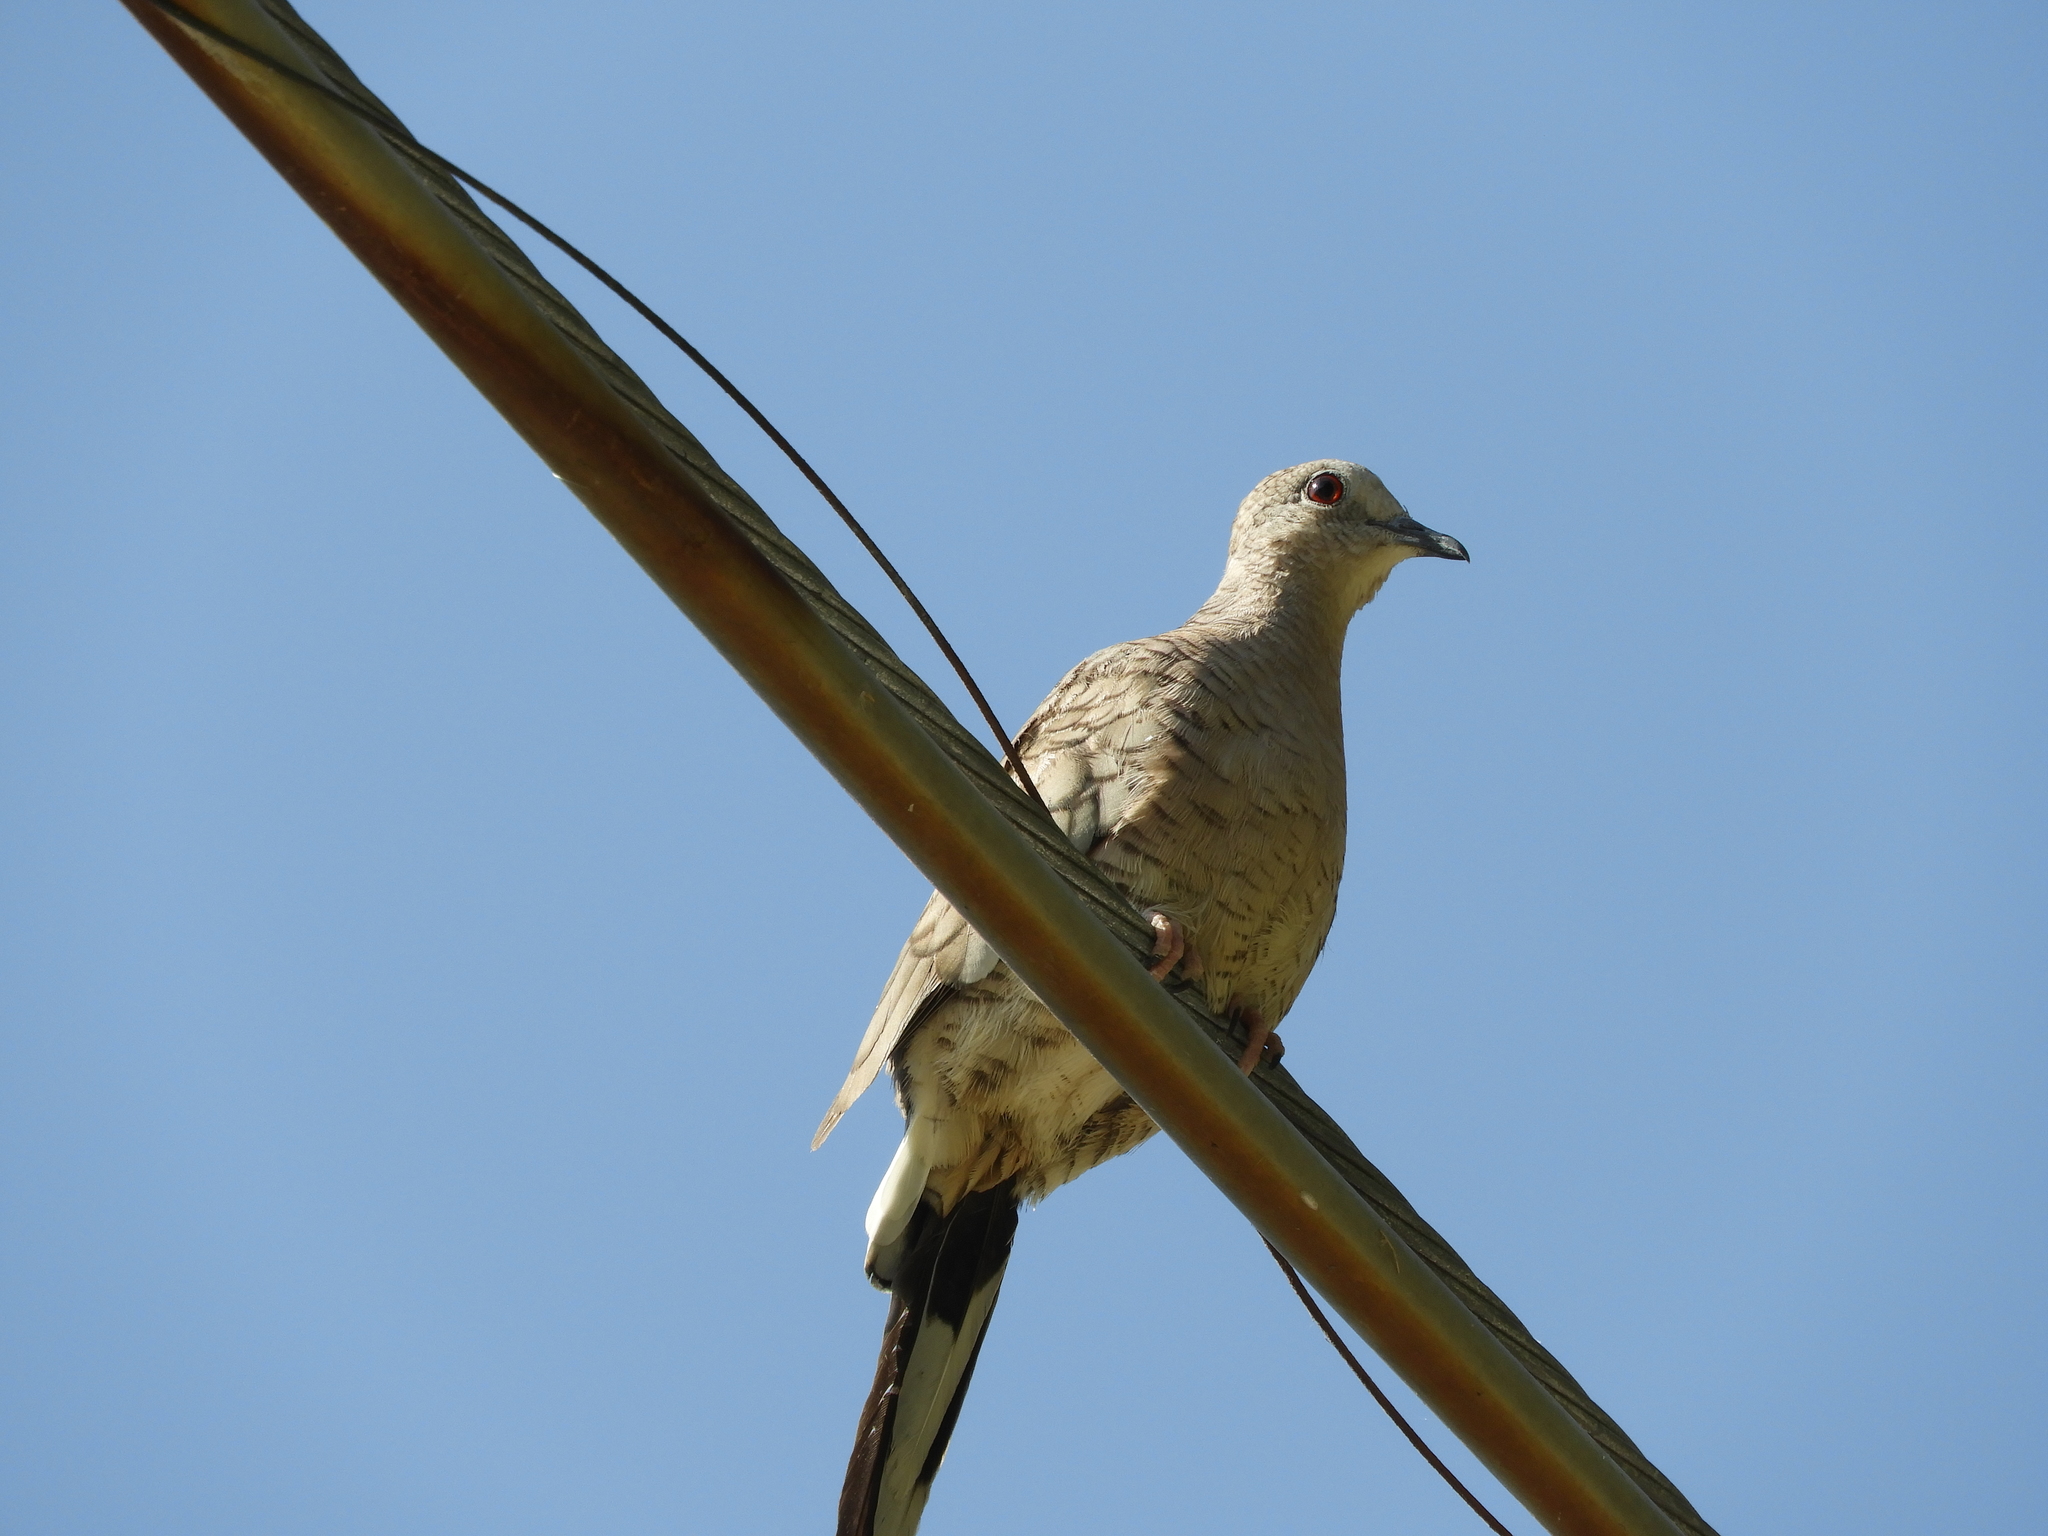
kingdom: Animalia
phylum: Chordata
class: Aves
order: Columbiformes
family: Columbidae
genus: Columbina
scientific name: Columbina inca
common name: Inca dove
